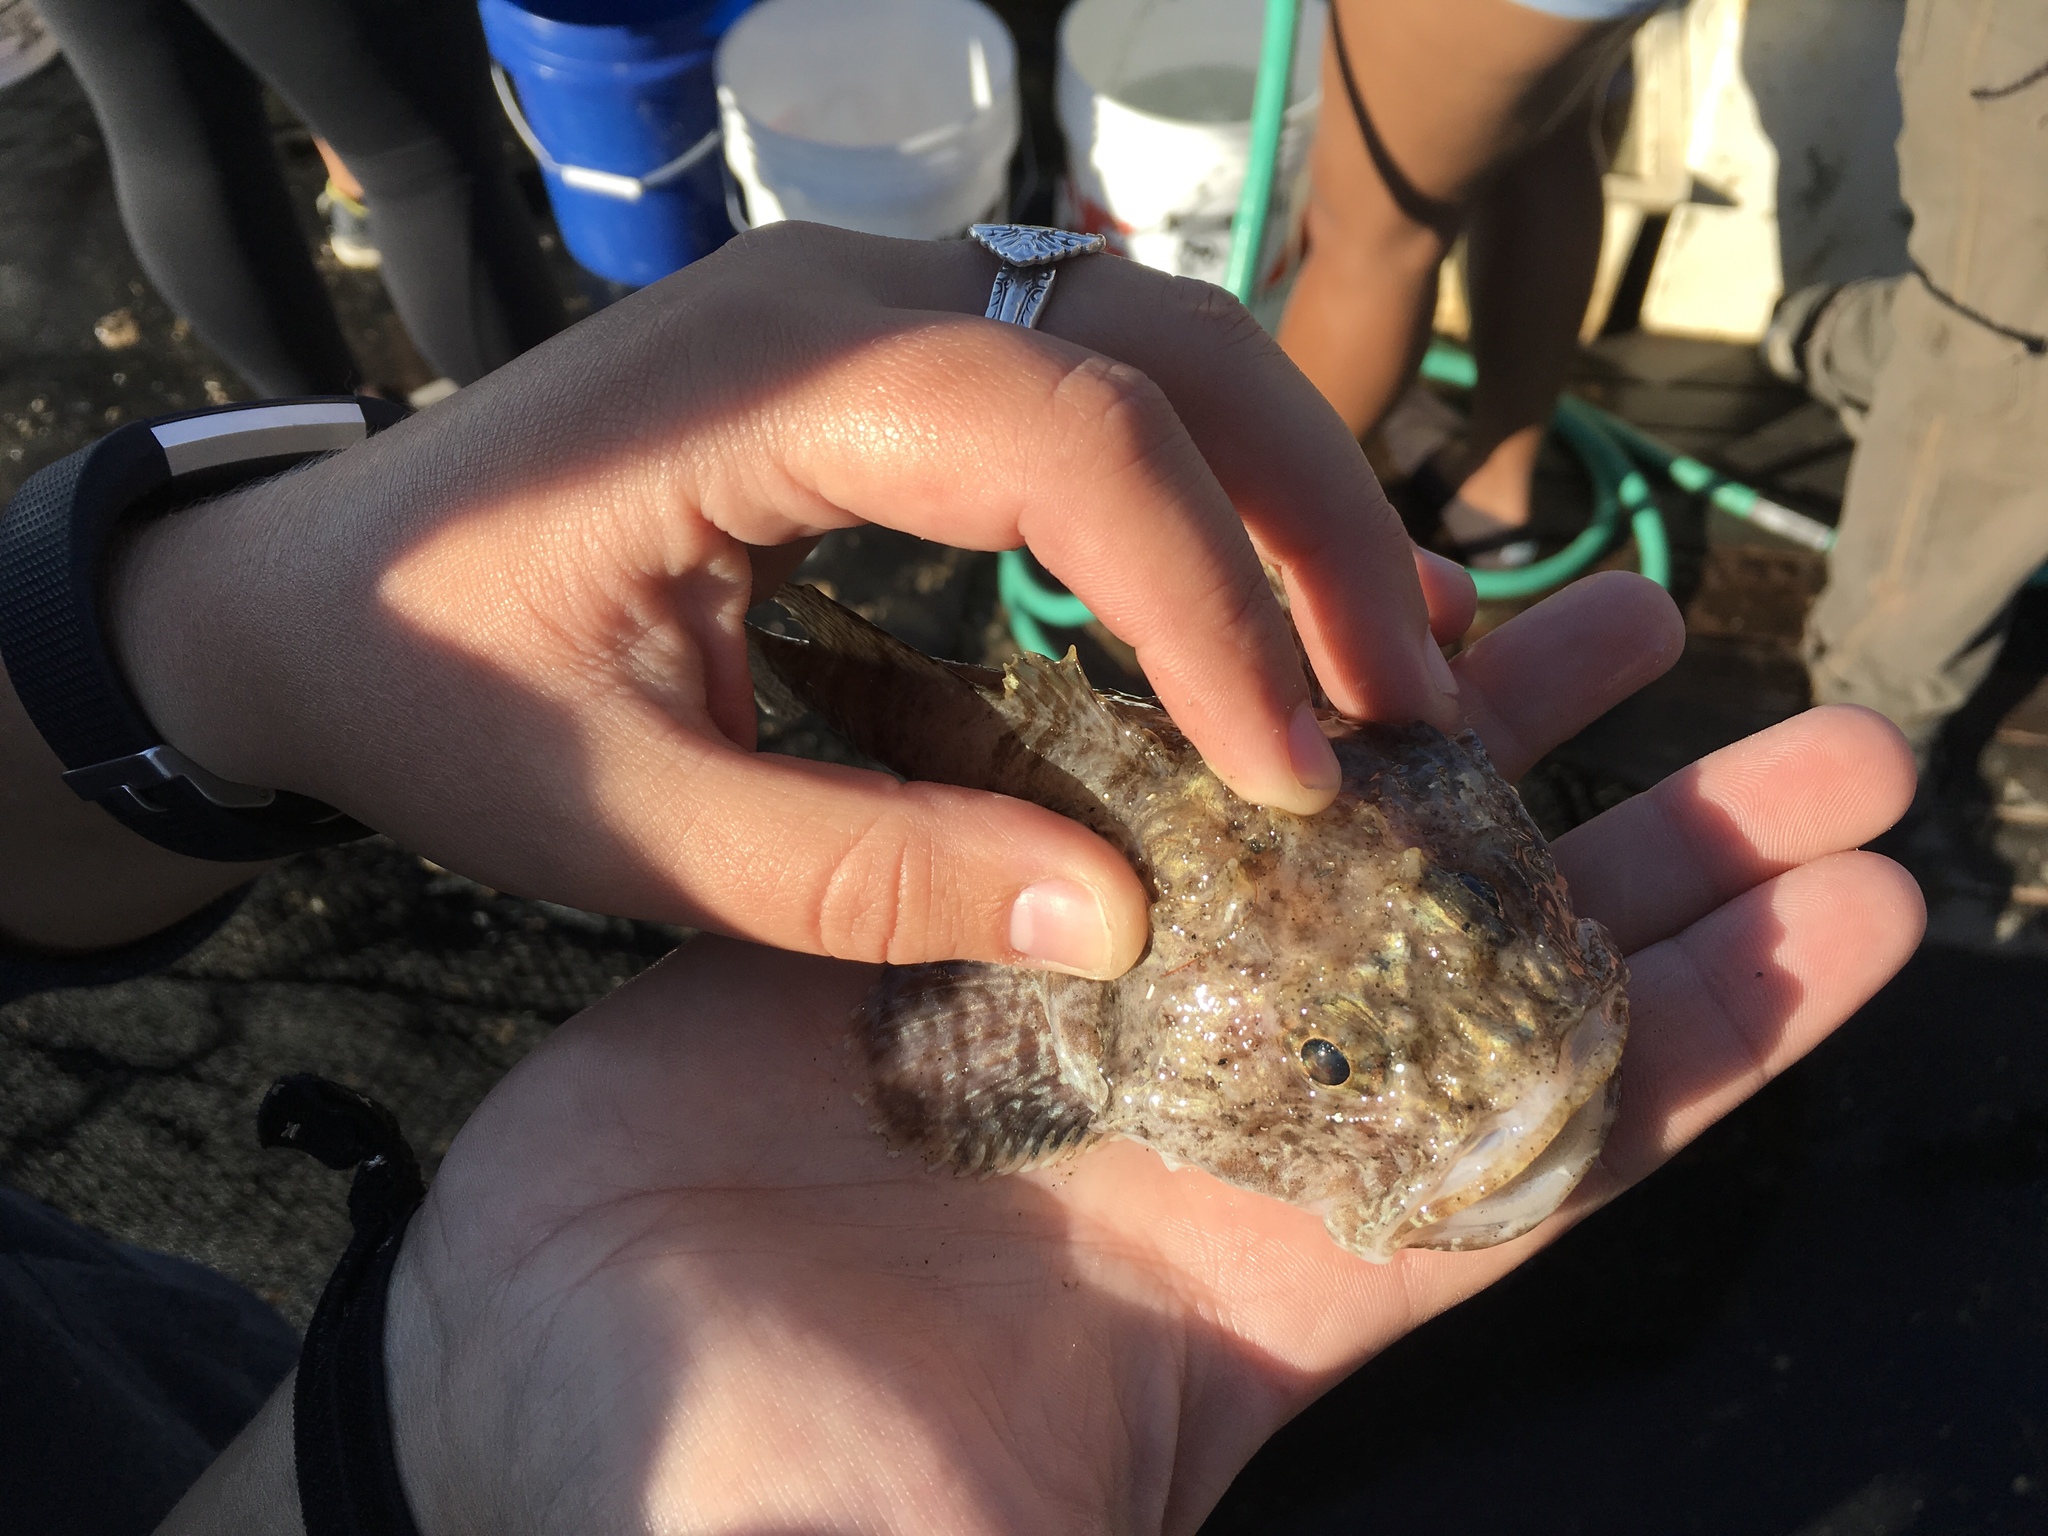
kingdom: Animalia
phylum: Chordata
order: Scorpaeniformes
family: Psychrolutidae
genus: Dasycottus
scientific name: Dasycottus setiger
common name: Spinyhead sculpin
